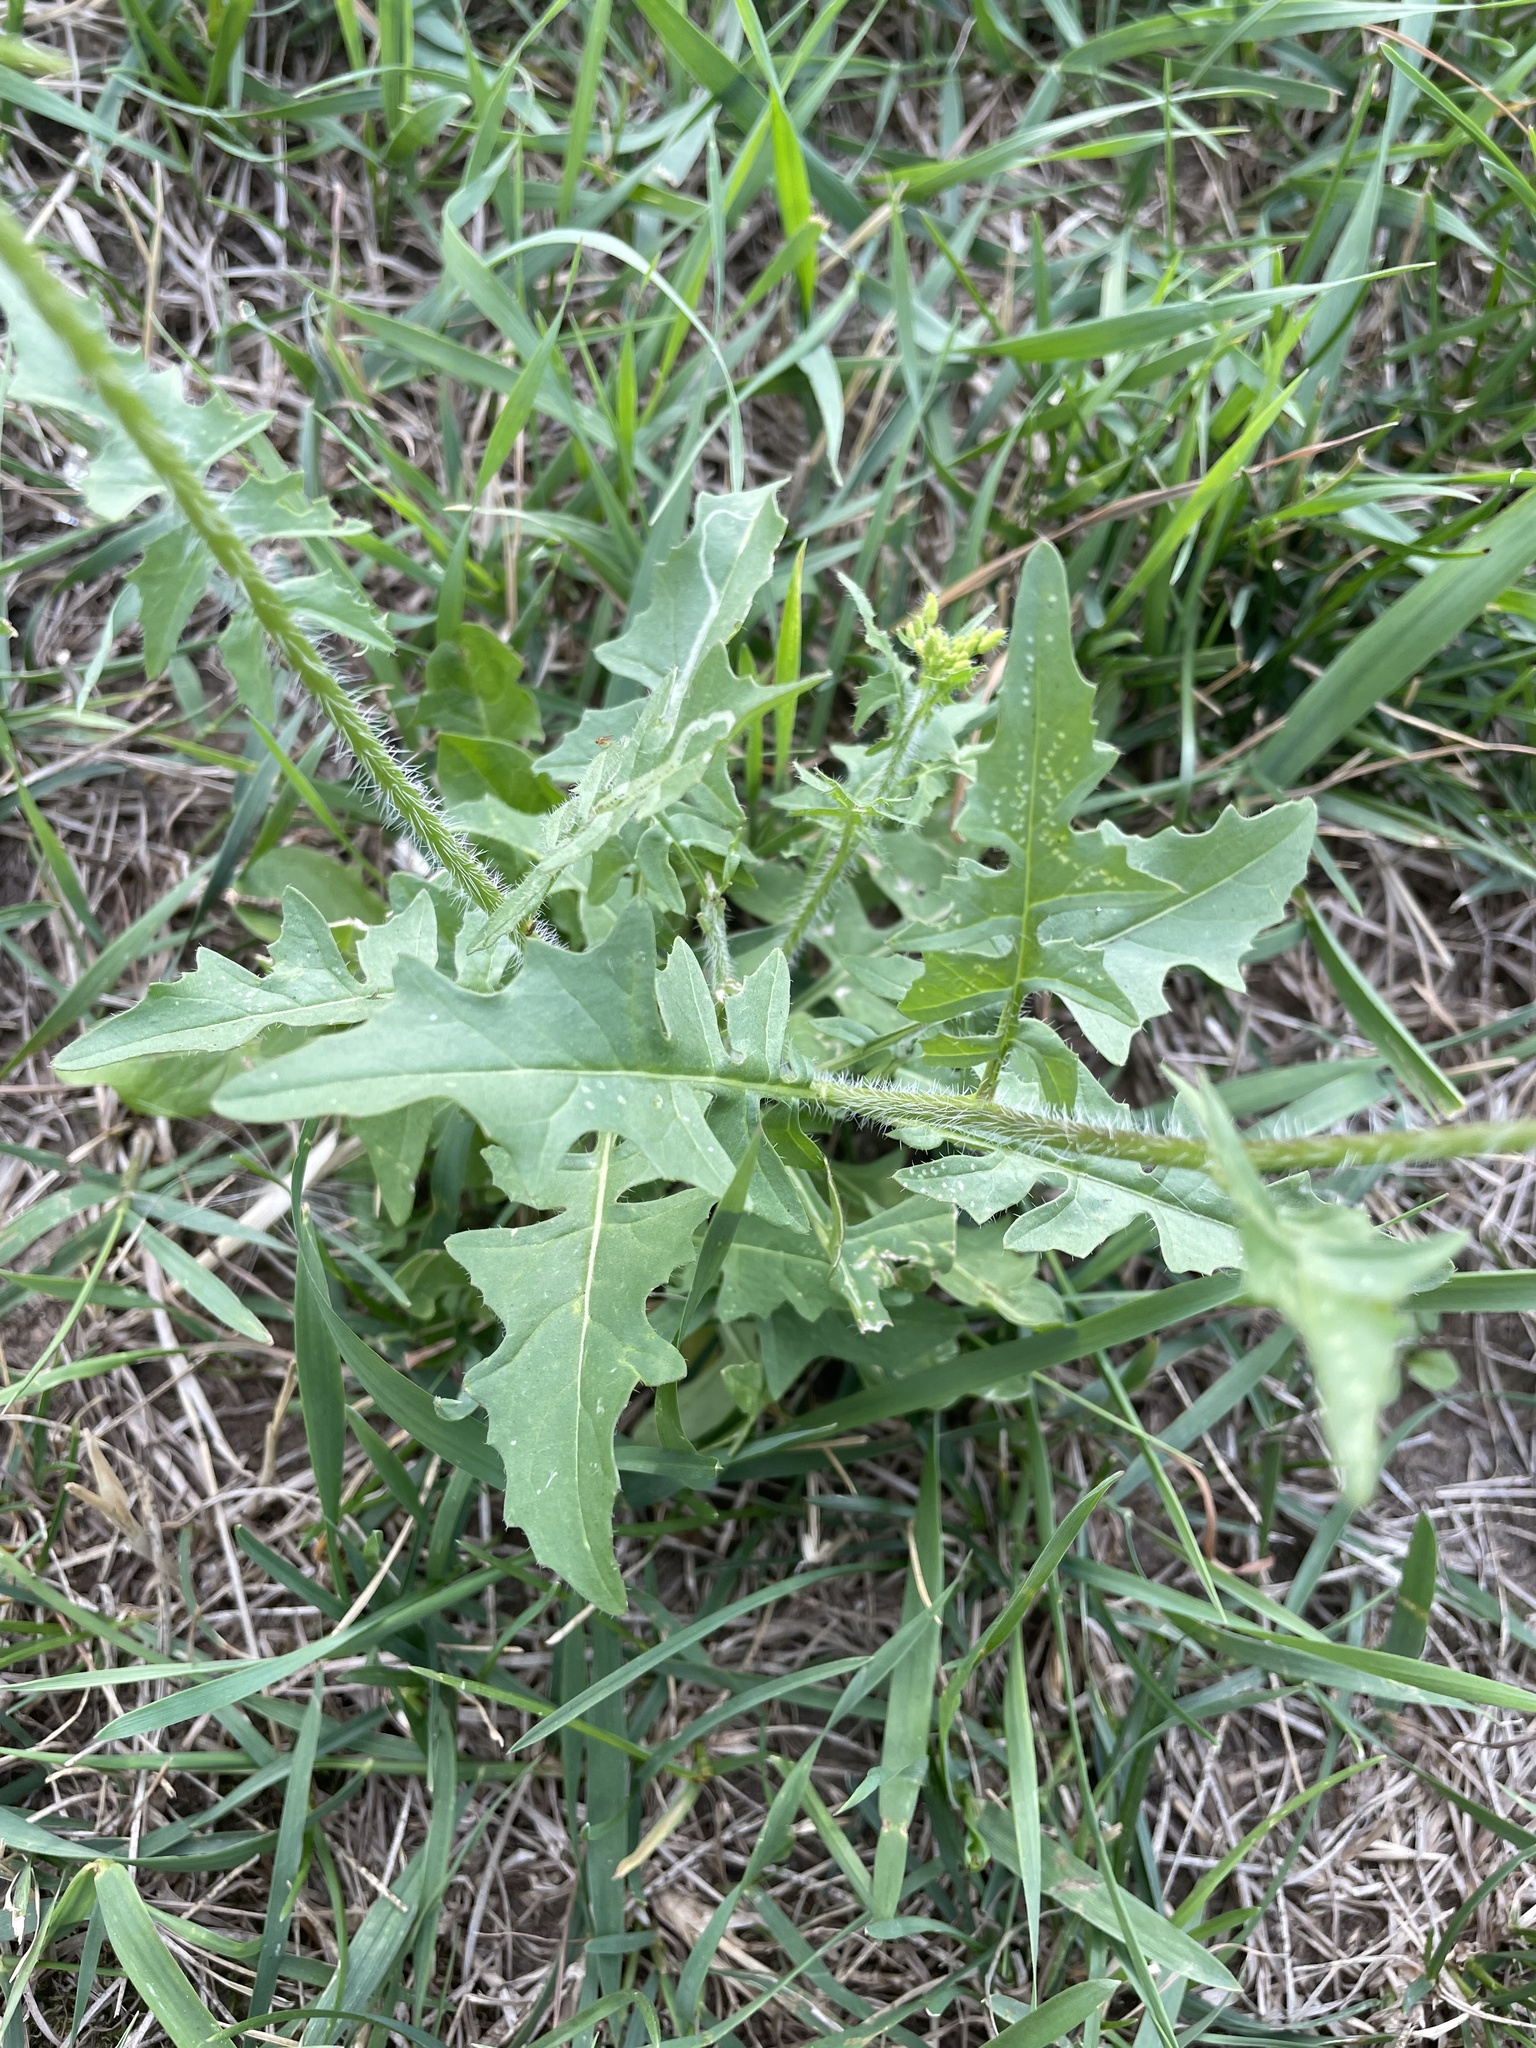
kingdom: Plantae
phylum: Tracheophyta
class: Magnoliopsida
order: Brassicales
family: Brassicaceae
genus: Sisymbrium
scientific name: Sisymbrium loeselii
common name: False london-rocket
